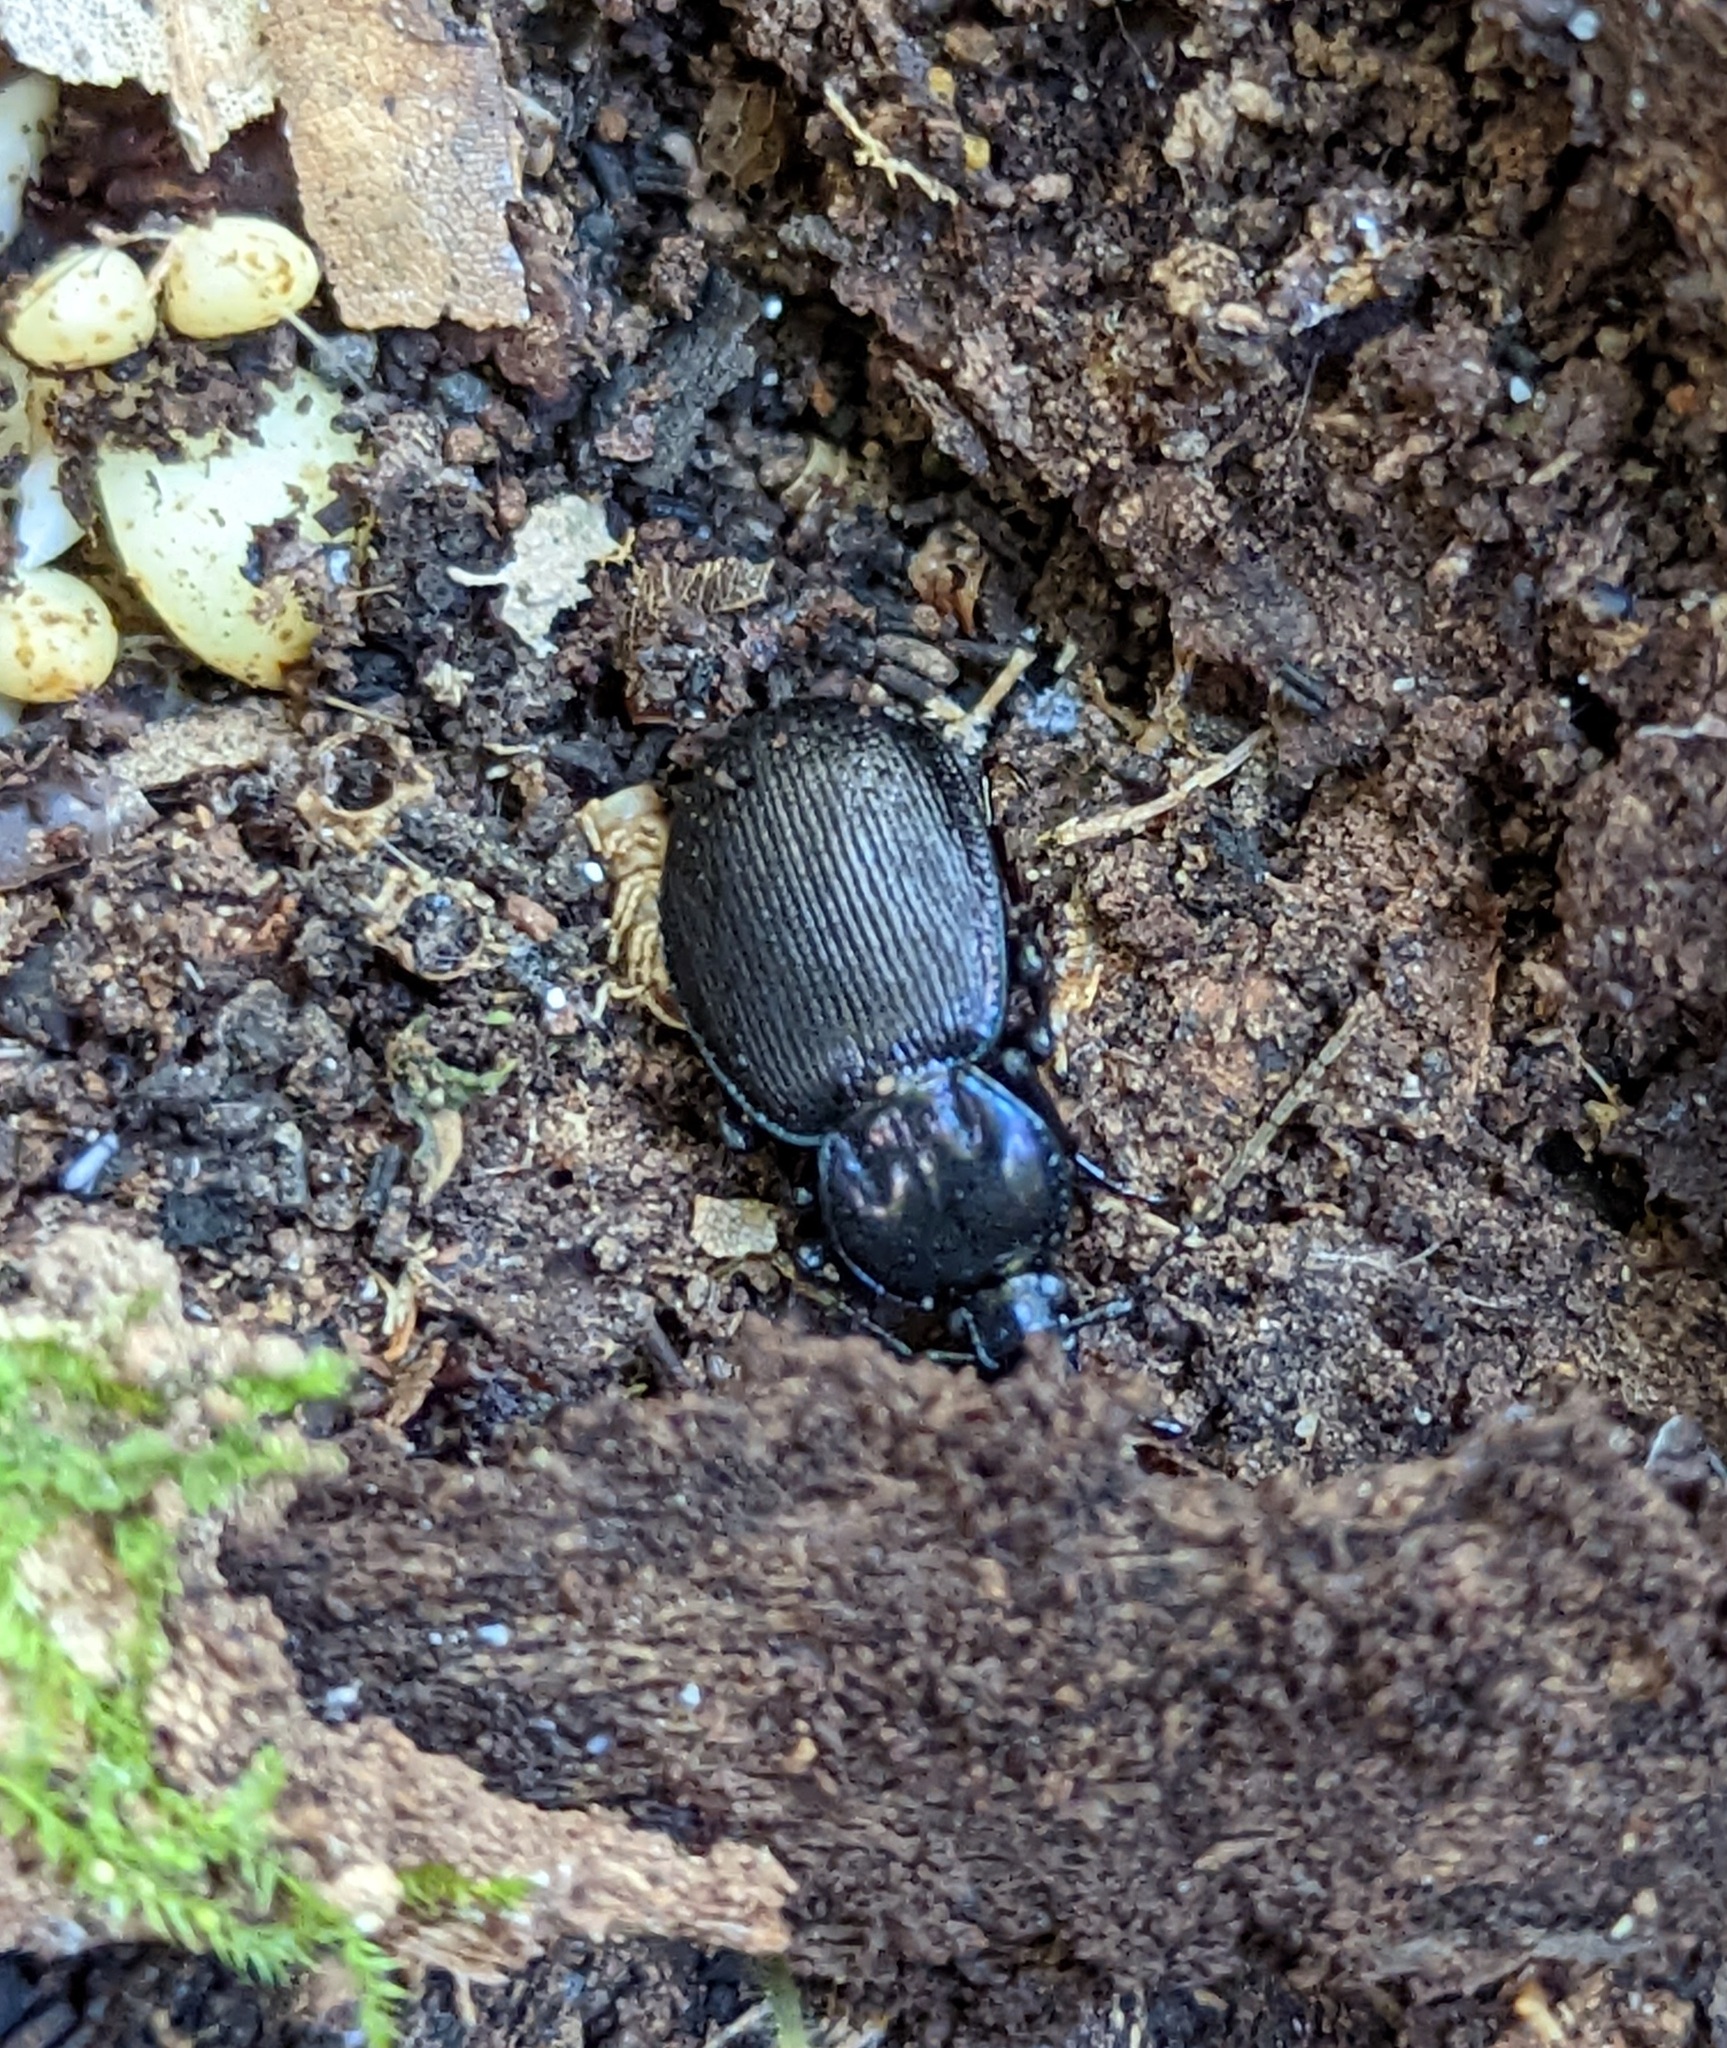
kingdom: Animalia
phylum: Arthropoda
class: Insecta
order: Coleoptera
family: Carabidae
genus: Sphaeroderus
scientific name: Sphaeroderus stenostomus
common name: Small snail-eating ground beetle
